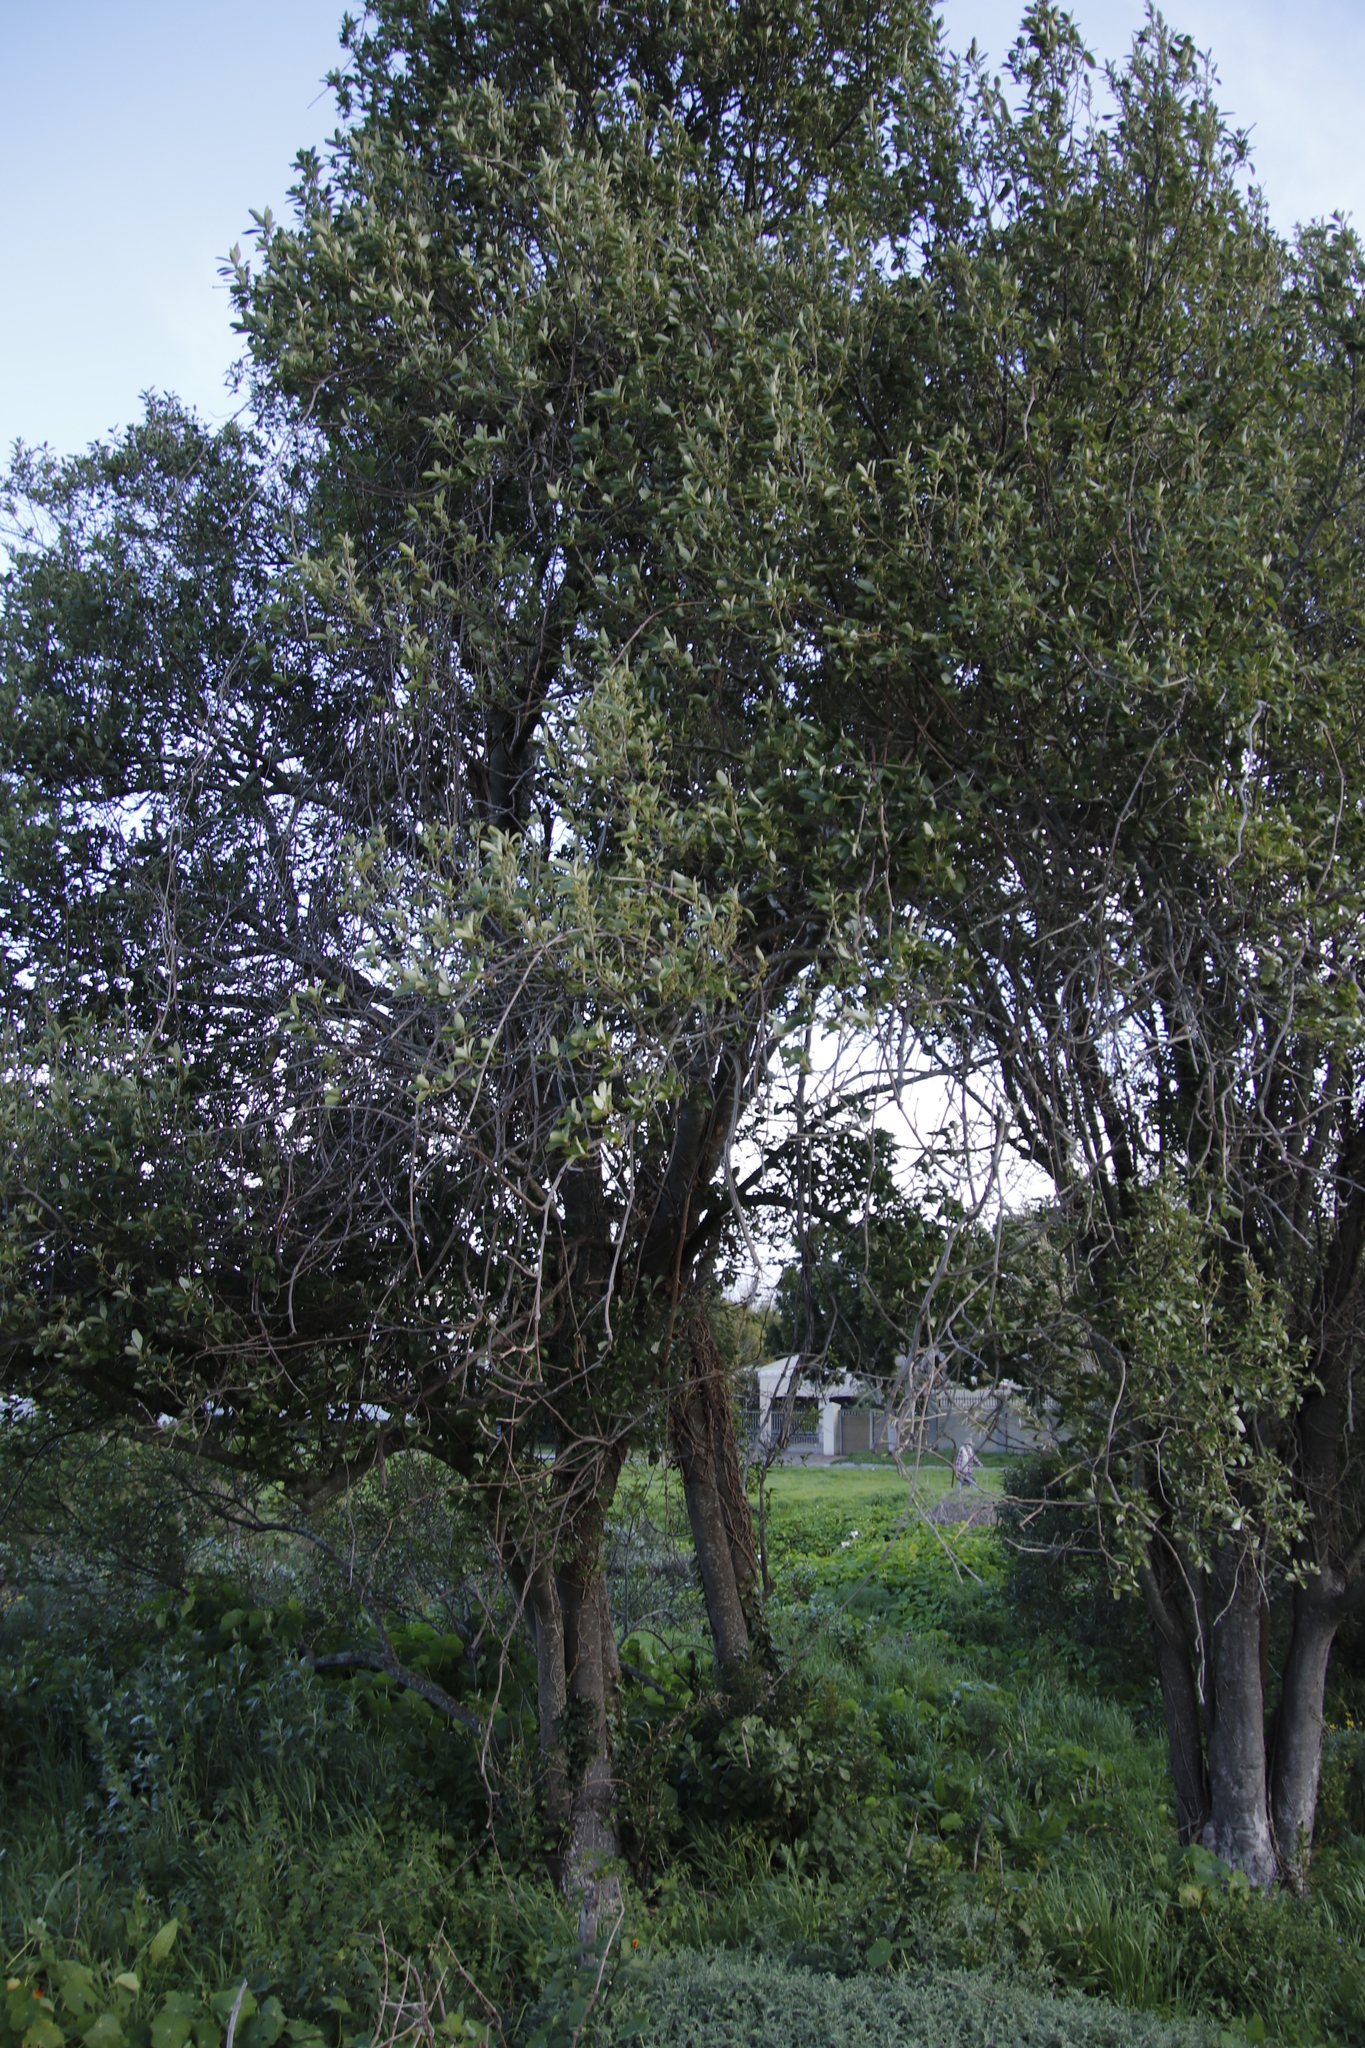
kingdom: Plantae
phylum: Tracheophyta
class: Magnoliopsida
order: Malpighiales
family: Achariaceae
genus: Kiggelaria
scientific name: Kiggelaria africana
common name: Wild peach
